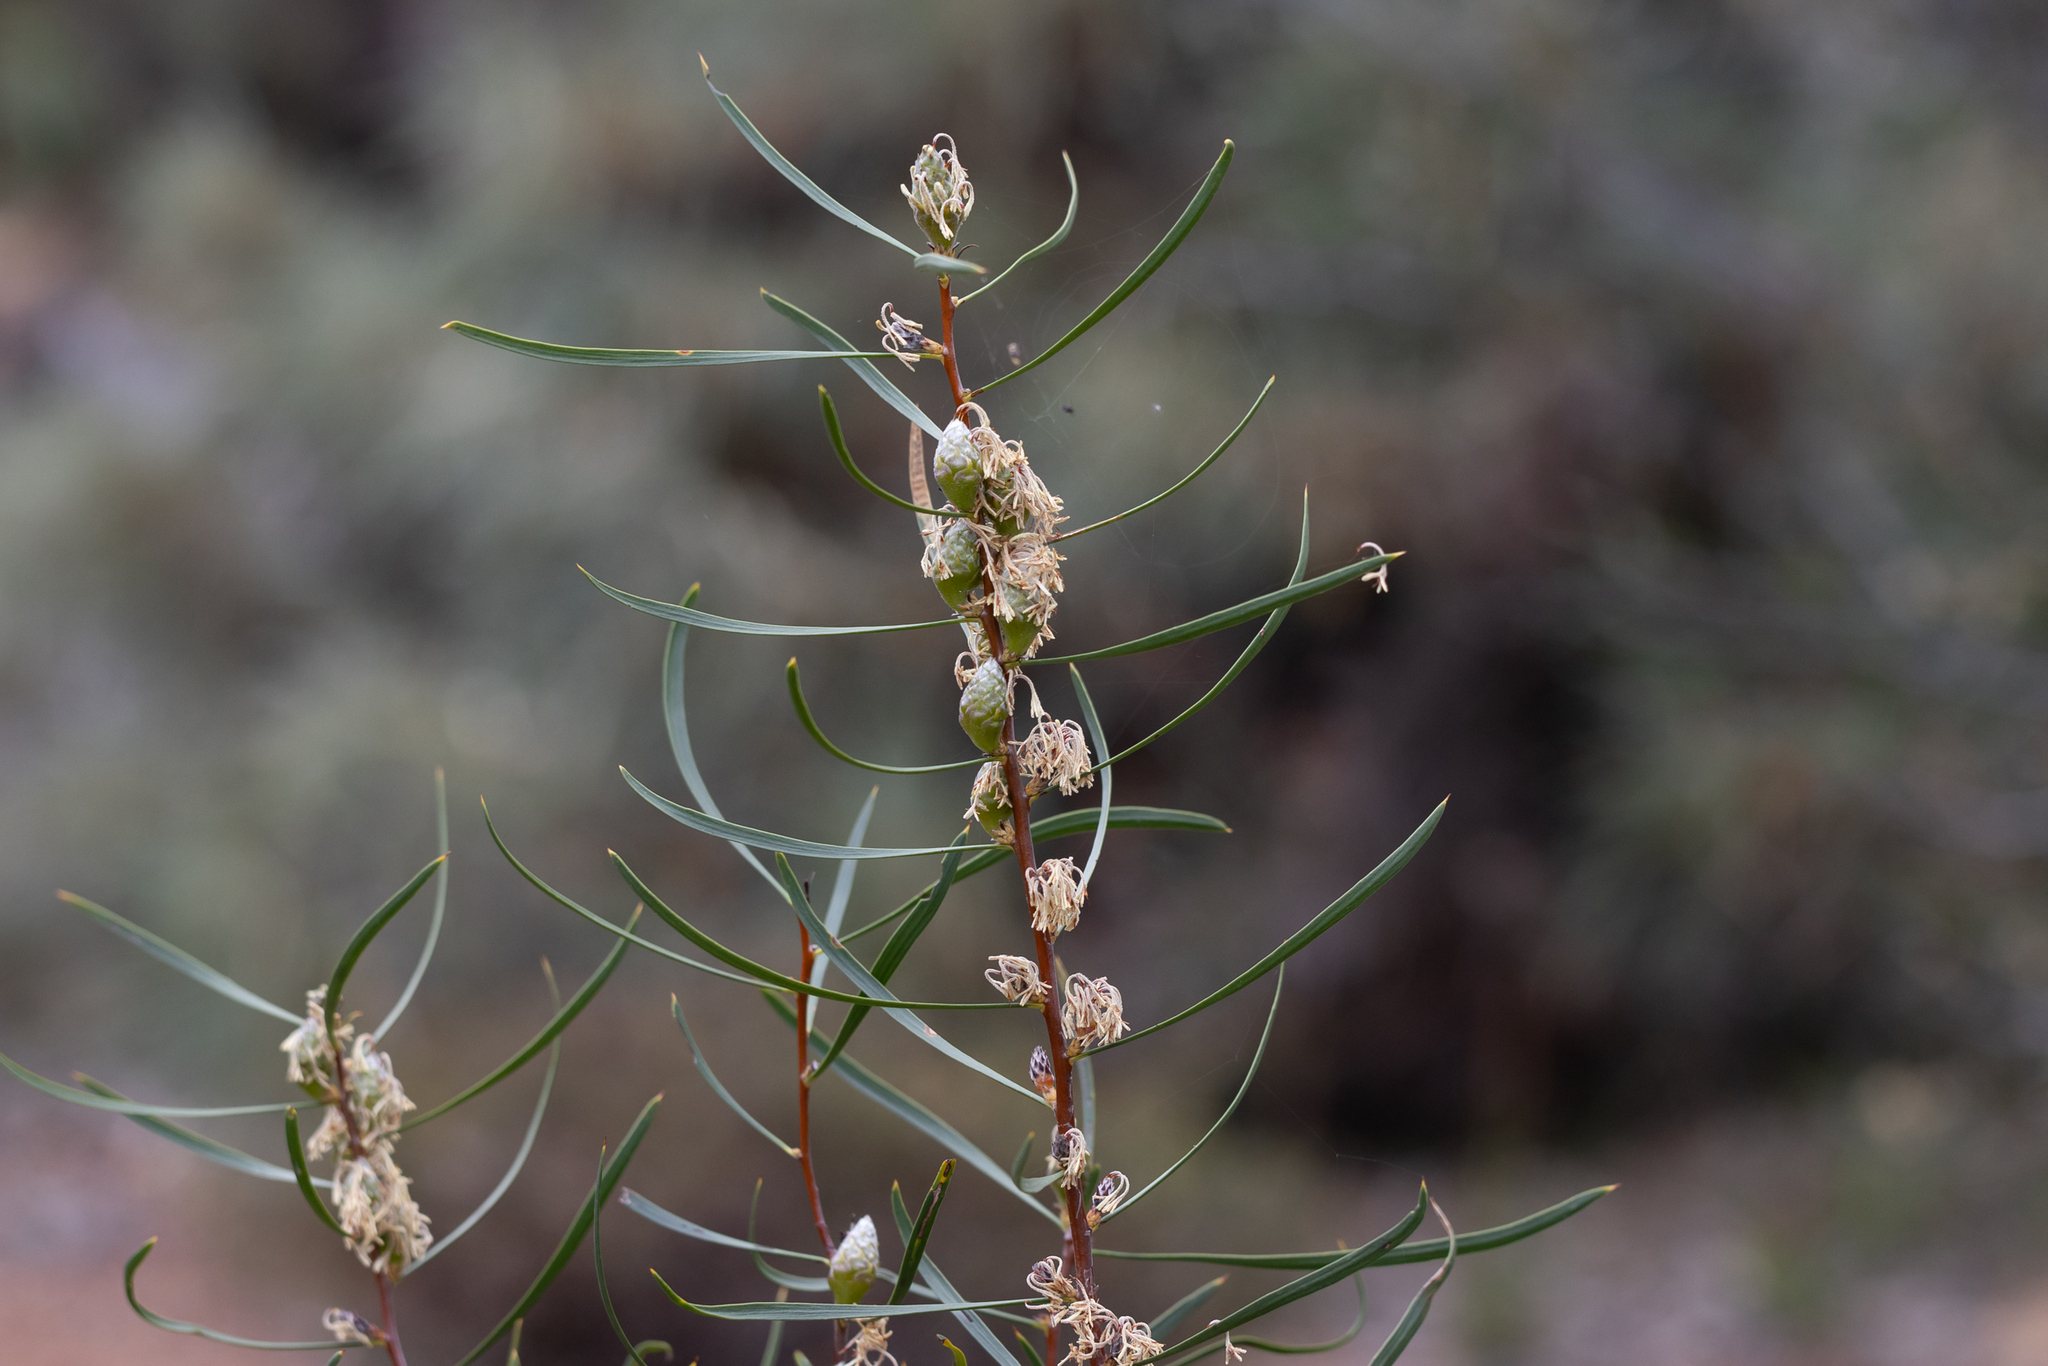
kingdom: Plantae
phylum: Tracheophyta
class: Magnoliopsida
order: Proteales
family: Proteaceae
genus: Petrophile
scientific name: Petrophile heterophylla
